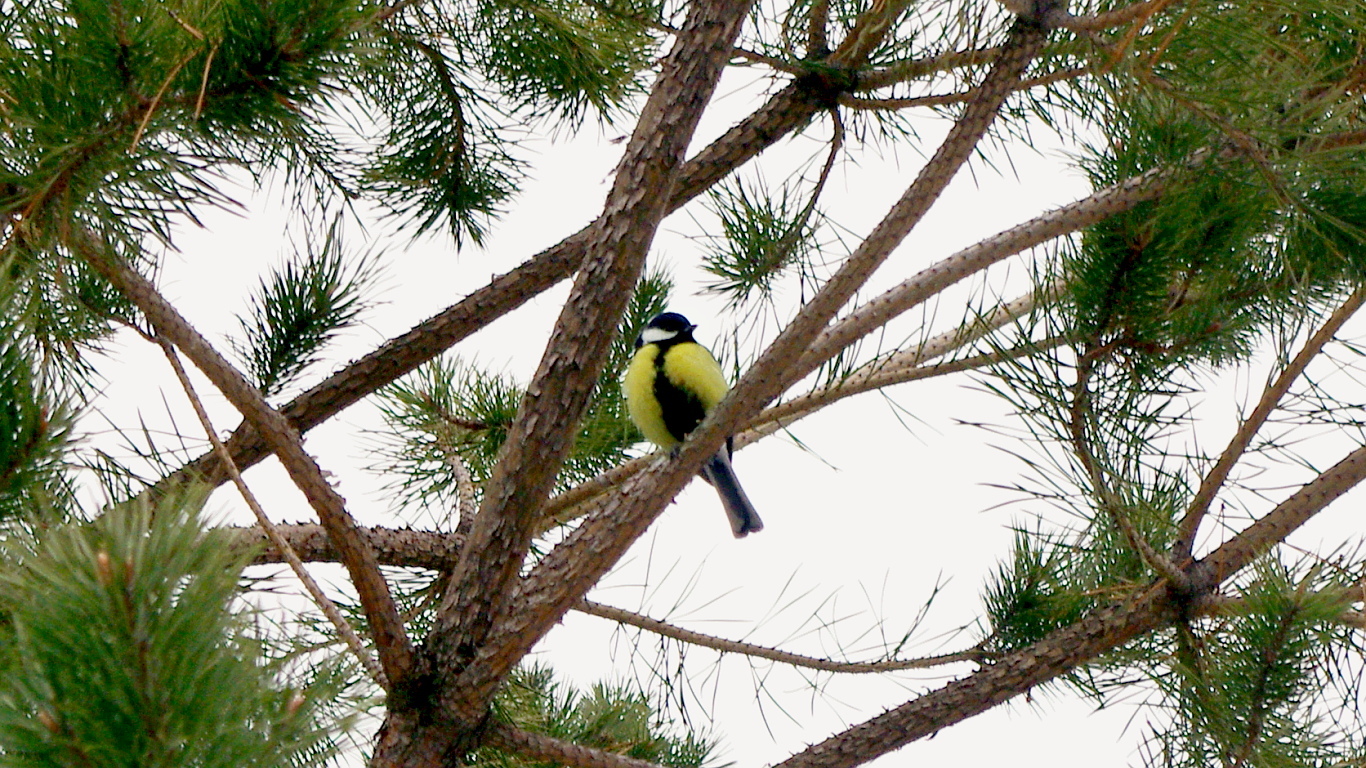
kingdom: Animalia
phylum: Chordata
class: Aves
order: Passeriformes
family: Paridae
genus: Parus
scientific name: Parus major
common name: Great tit
